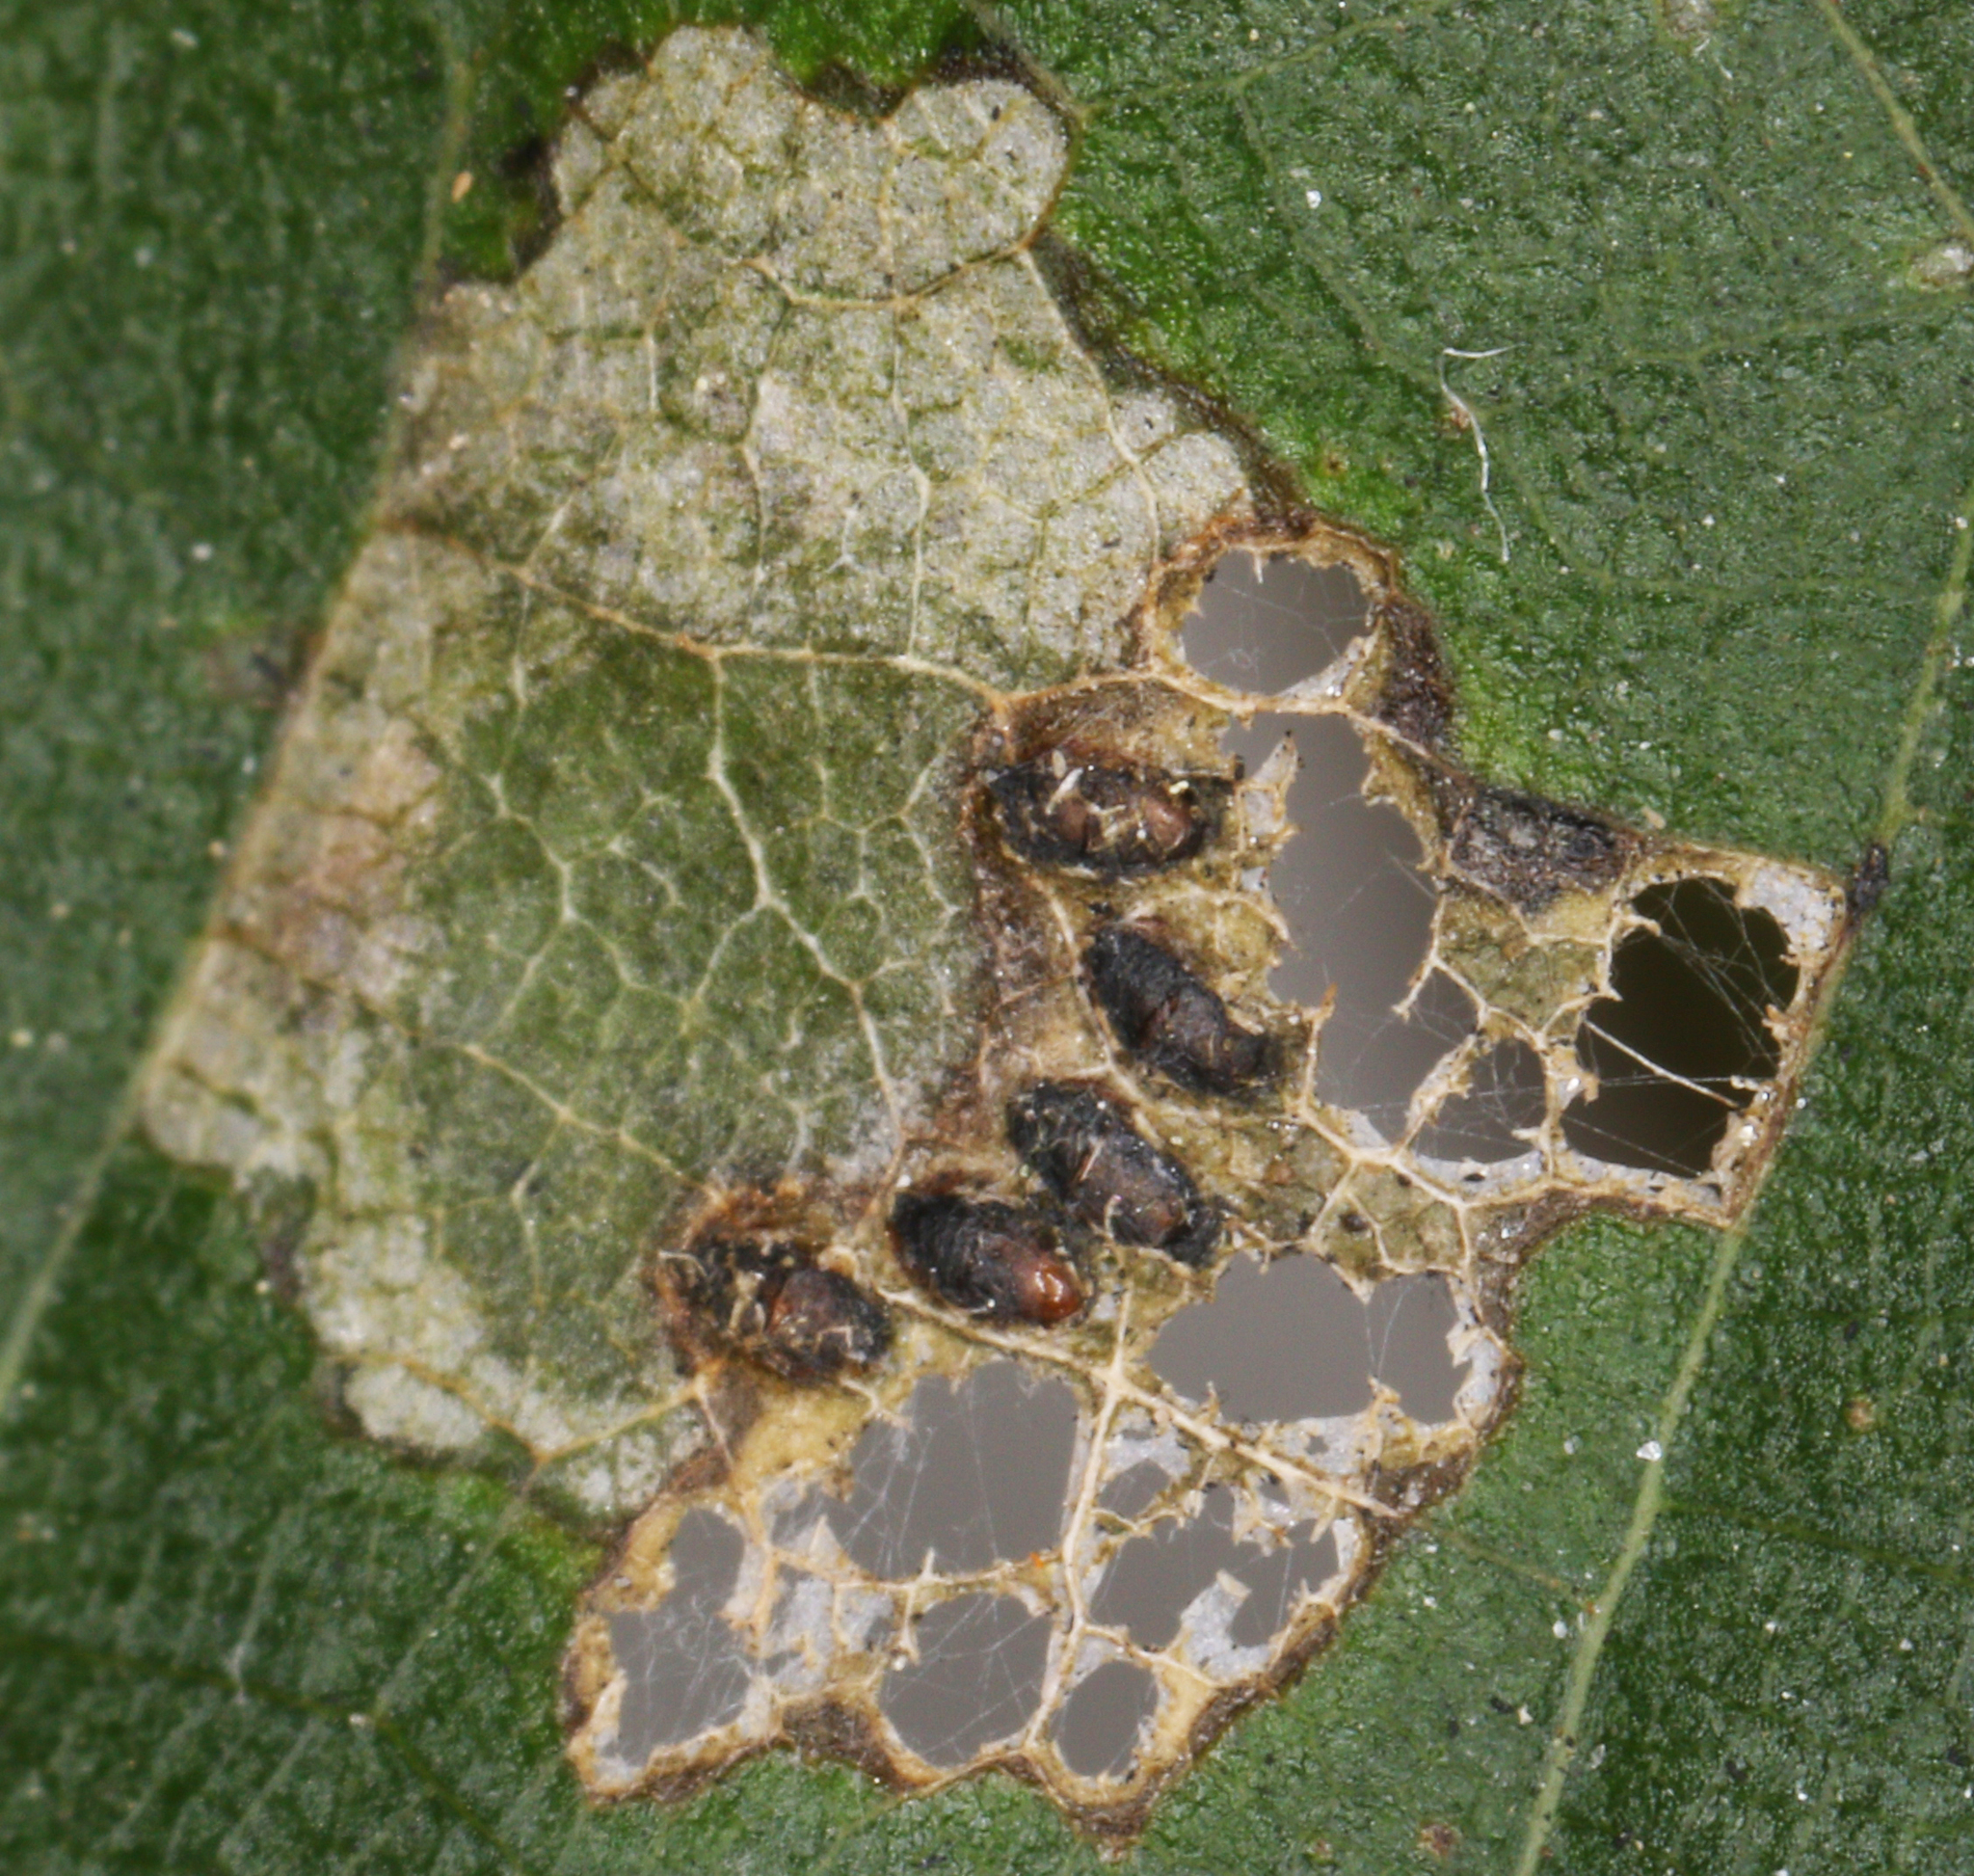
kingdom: Animalia
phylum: Arthropoda
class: Insecta
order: Coleoptera
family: Chrysomelidae
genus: Baliosus
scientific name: Baliosus nervosus
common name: Basswood leaf miner
